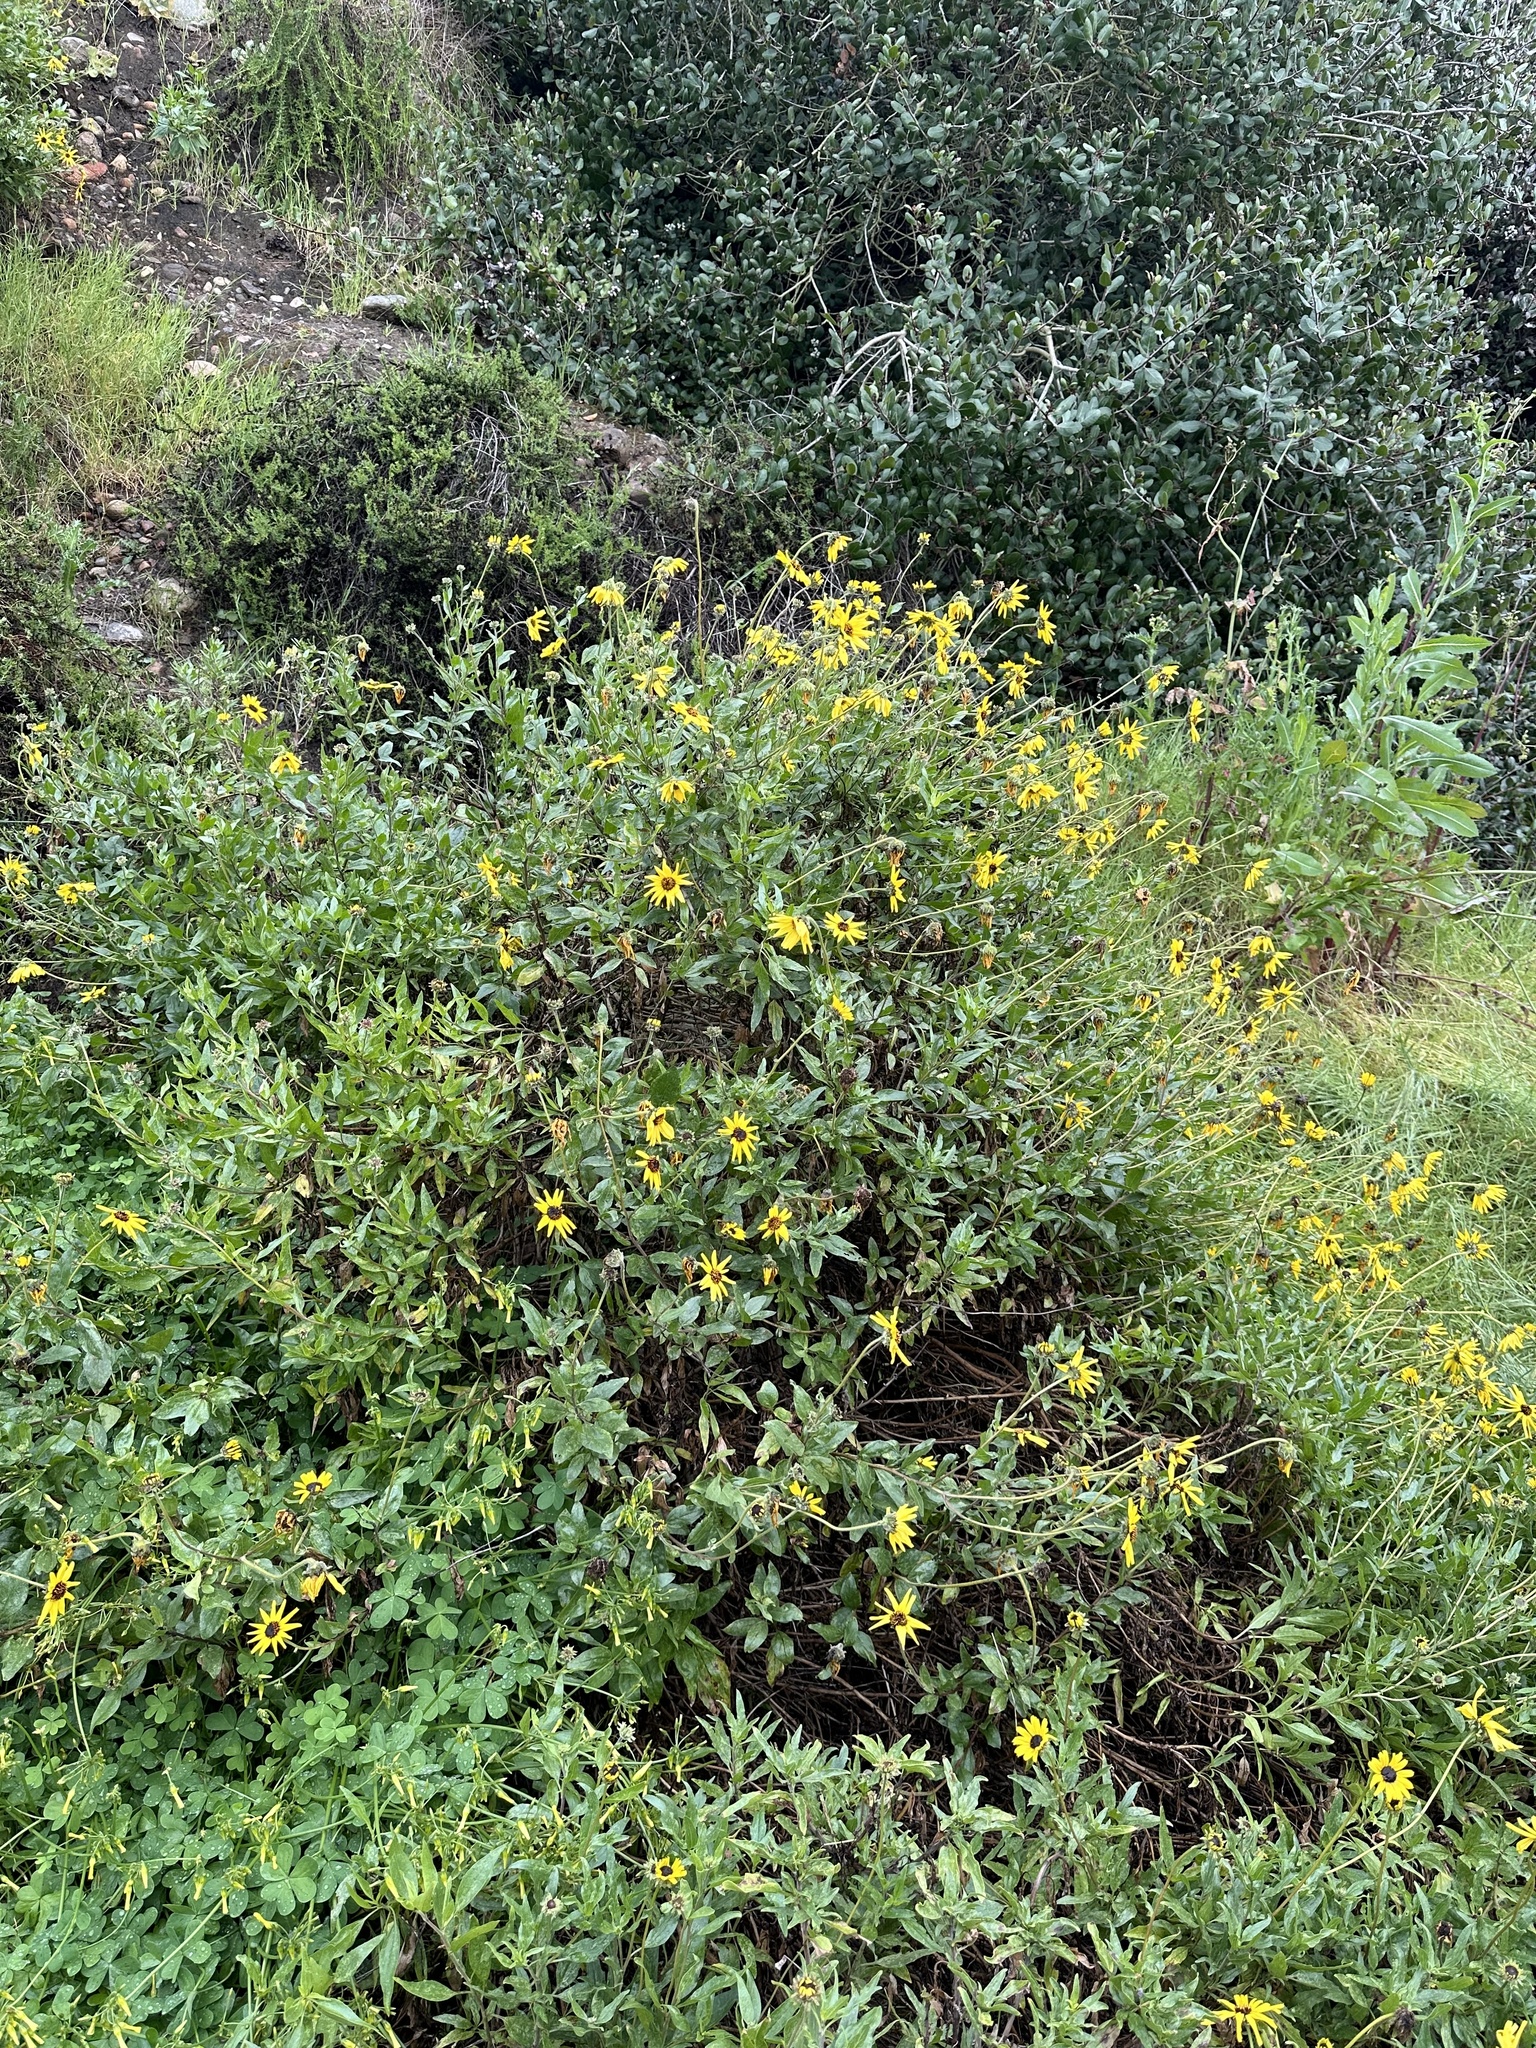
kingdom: Plantae
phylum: Tracheophyta
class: Magnoliopsida
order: Asterales
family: Asteraceae
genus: Encelia
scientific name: Encelia californica
